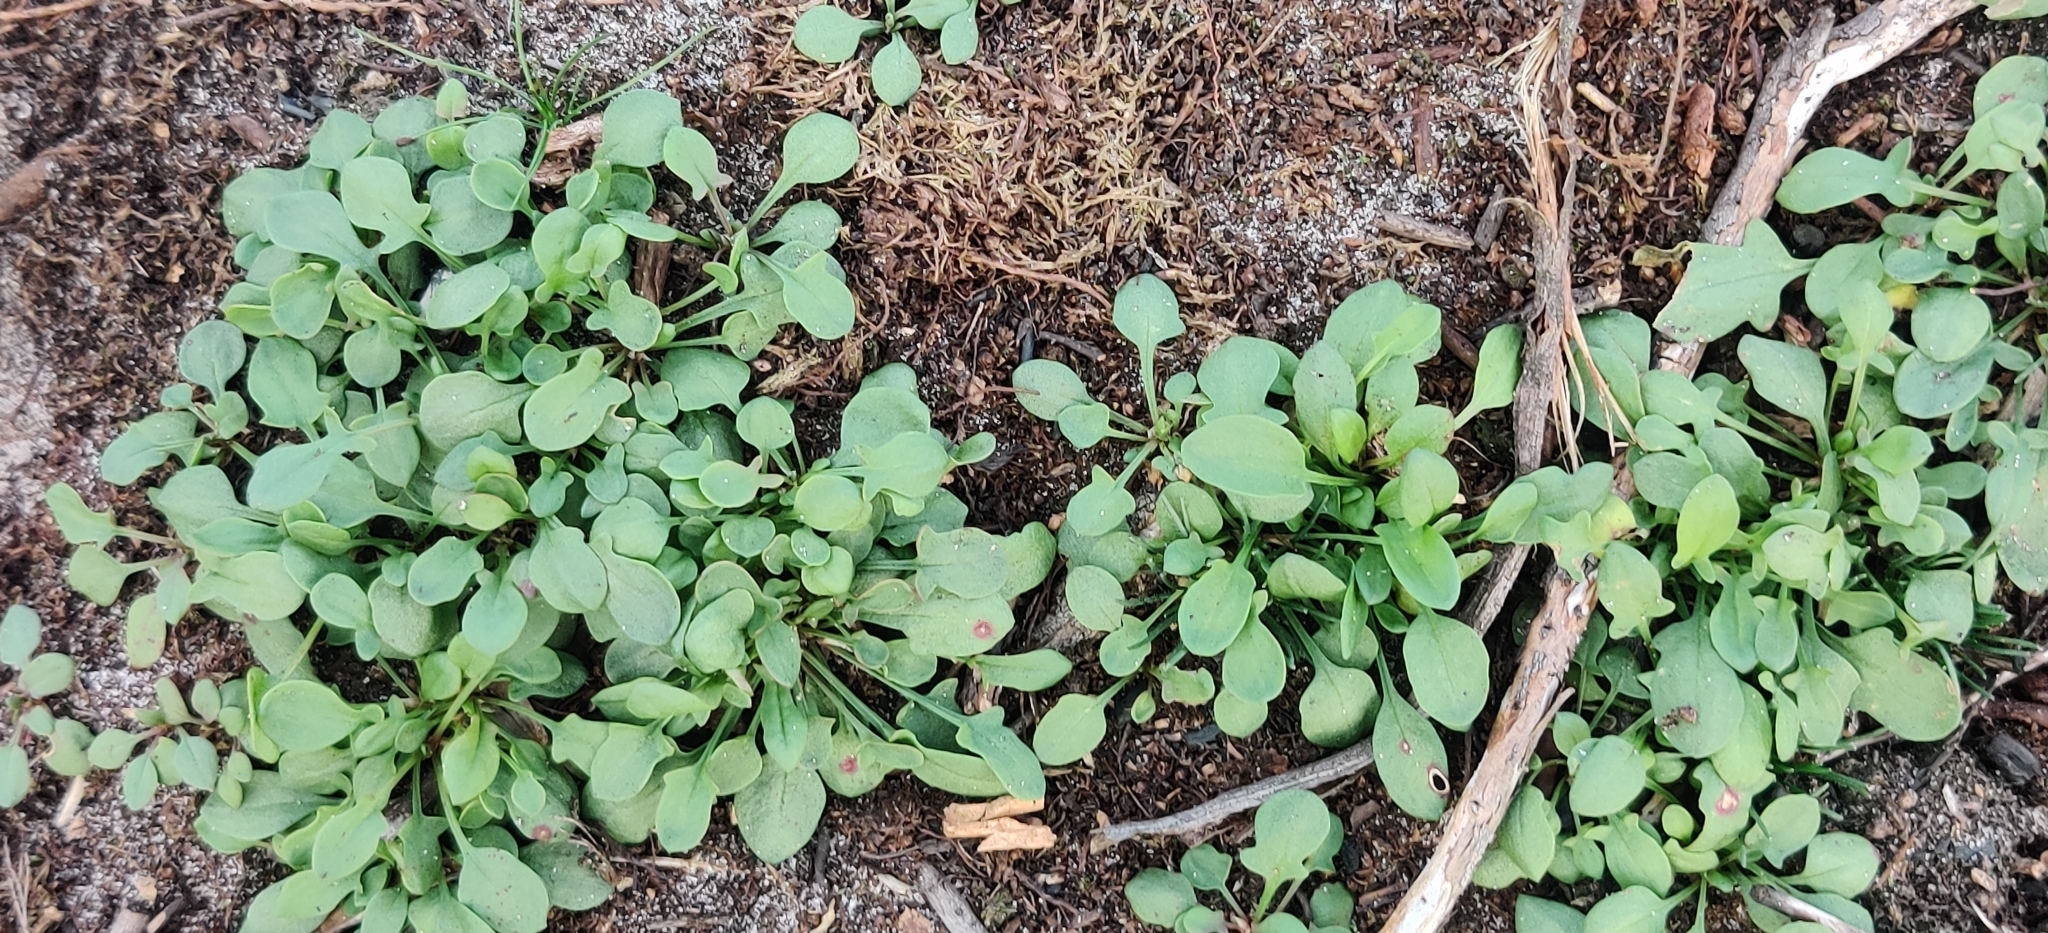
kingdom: Plantae
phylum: Tracheophyta
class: Magnoliopsida
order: Caryophyllales
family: Polygonaceae
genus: Rumex
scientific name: Rumex acetosella
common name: Common sheep sorrel
